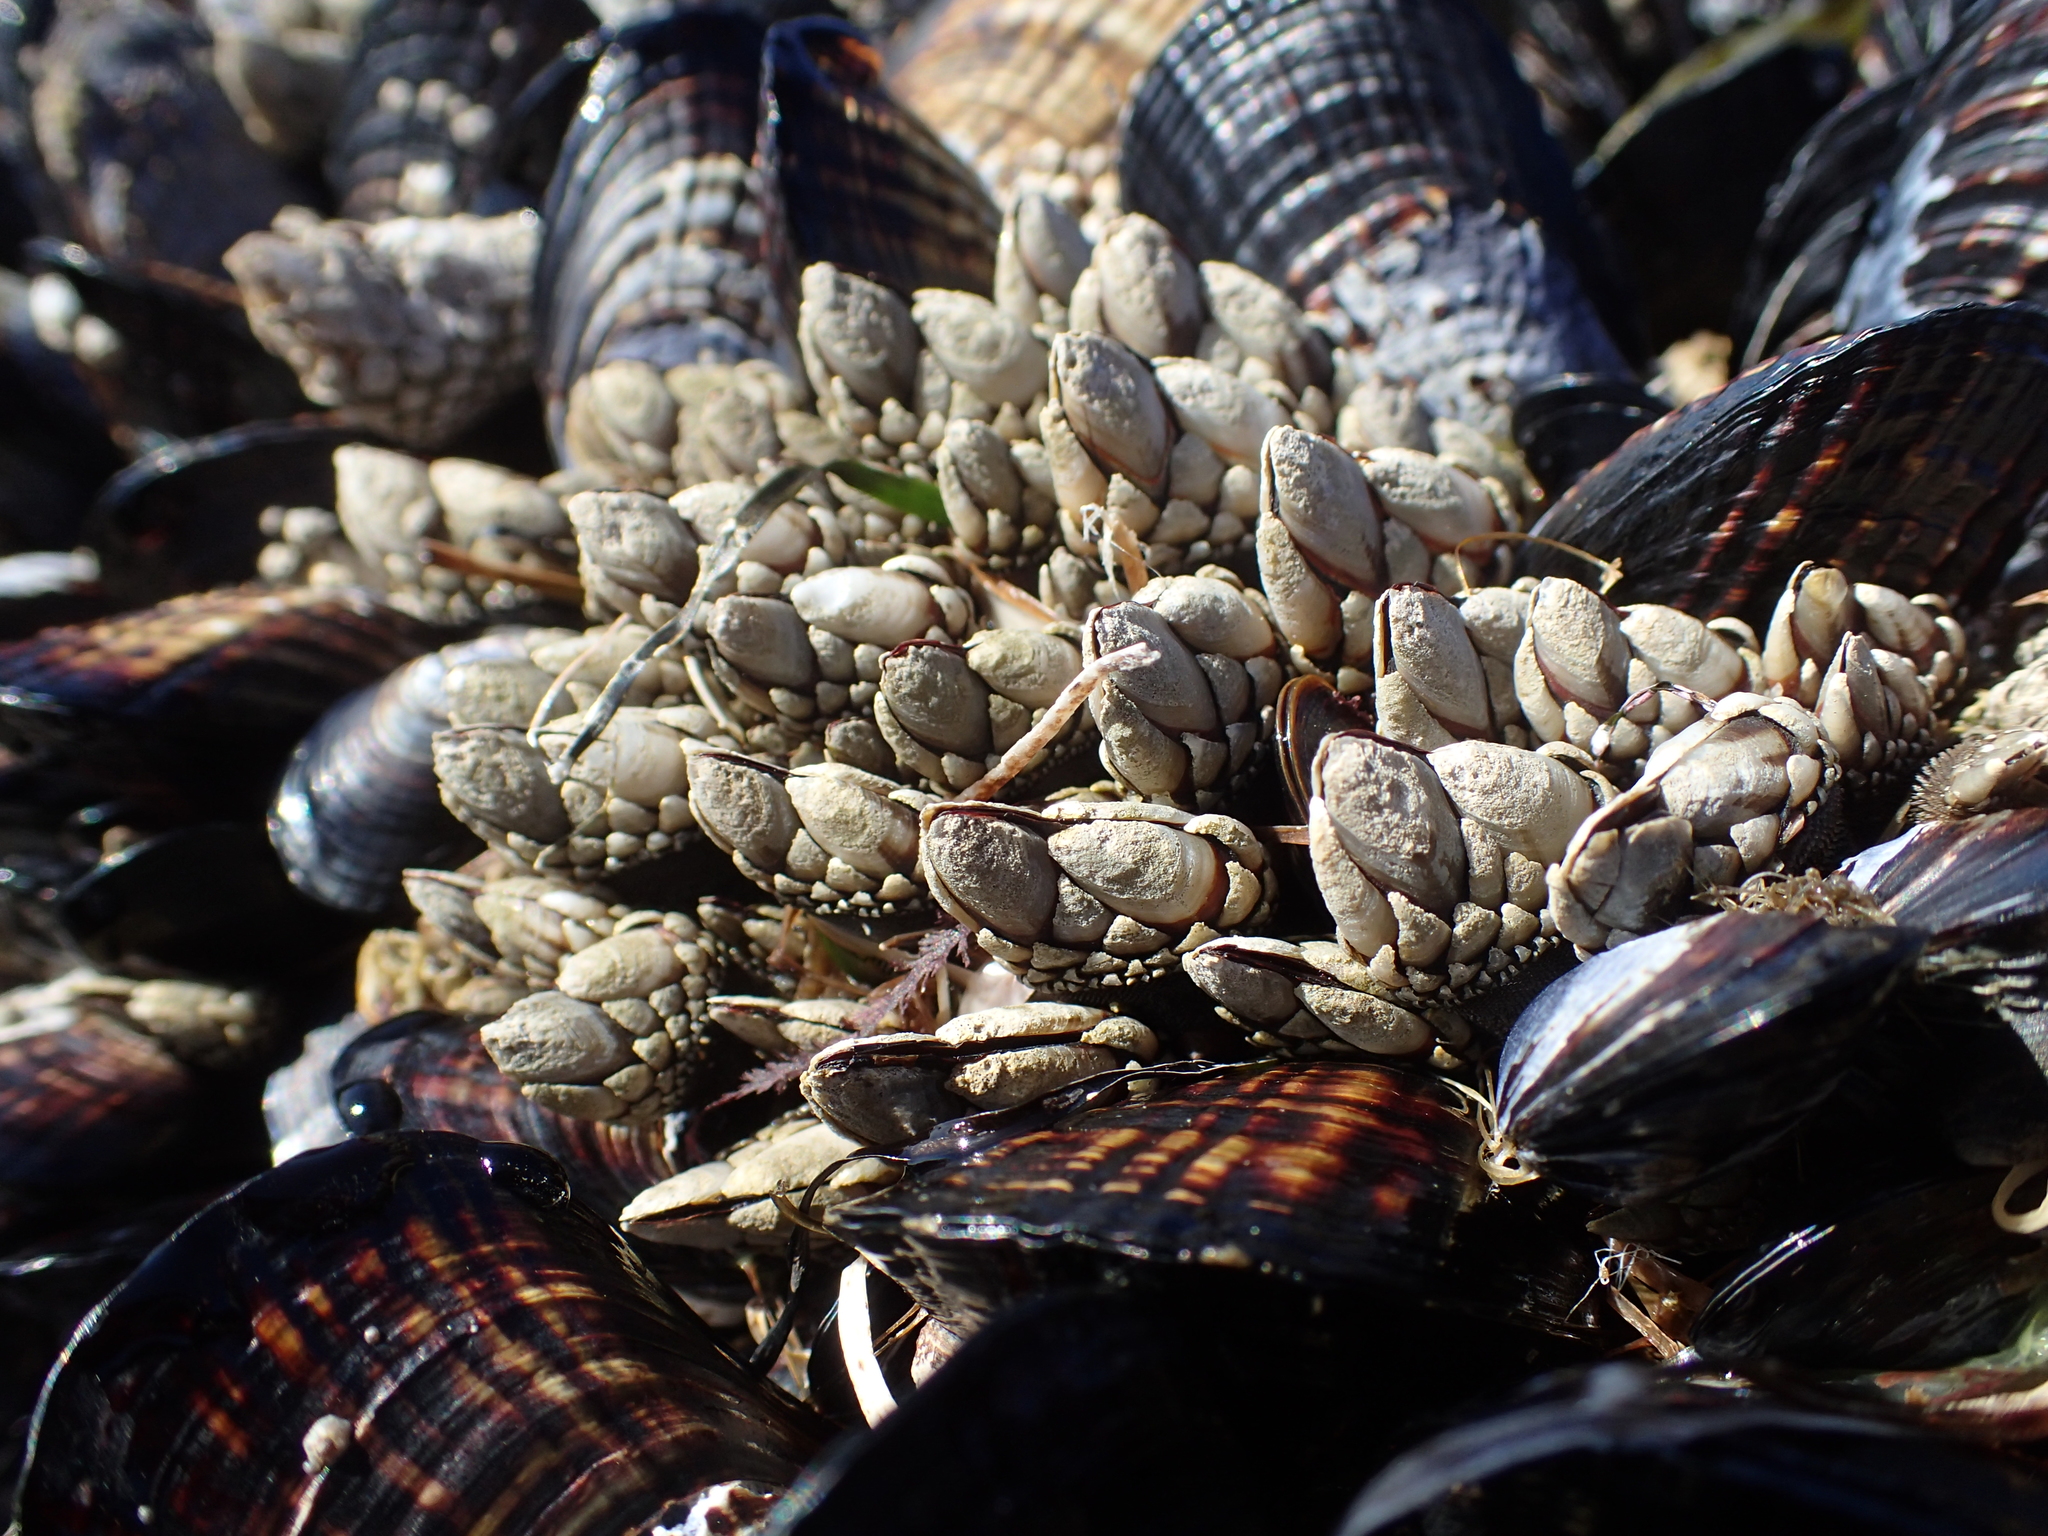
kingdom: Animalia
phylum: Arthropoda
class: Maxillopoda
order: Pedunculata
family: Pollicipedidae
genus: Pollicipes
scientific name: Pollicipes polymerus
